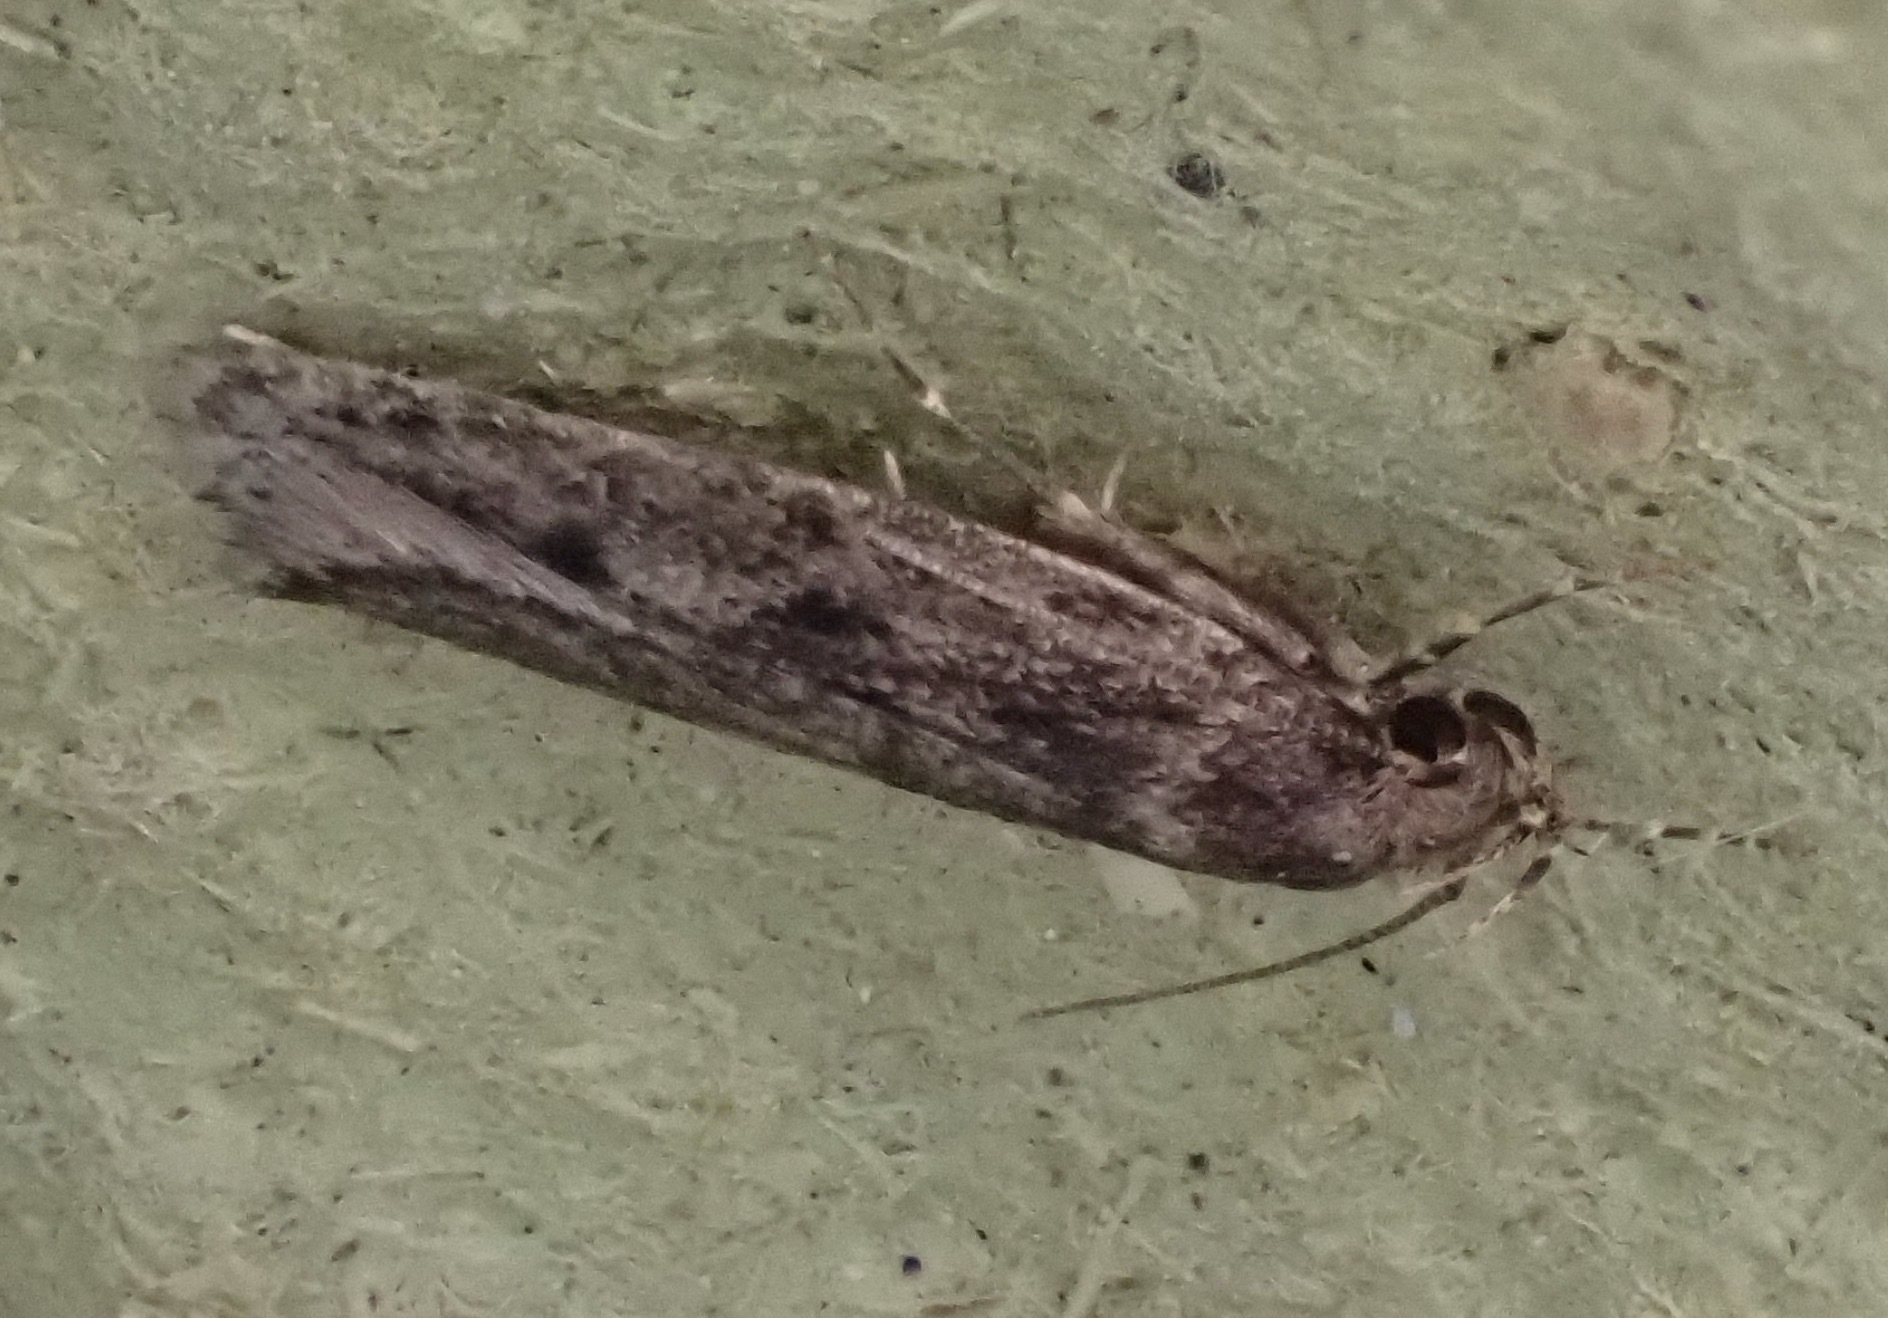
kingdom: Animalia
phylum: Arthropoda
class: Insecta
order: Lepidoptera
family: Oecophoridae
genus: Hofmannophila
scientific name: Hofmannophila pseudospretella
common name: Brown house moth
